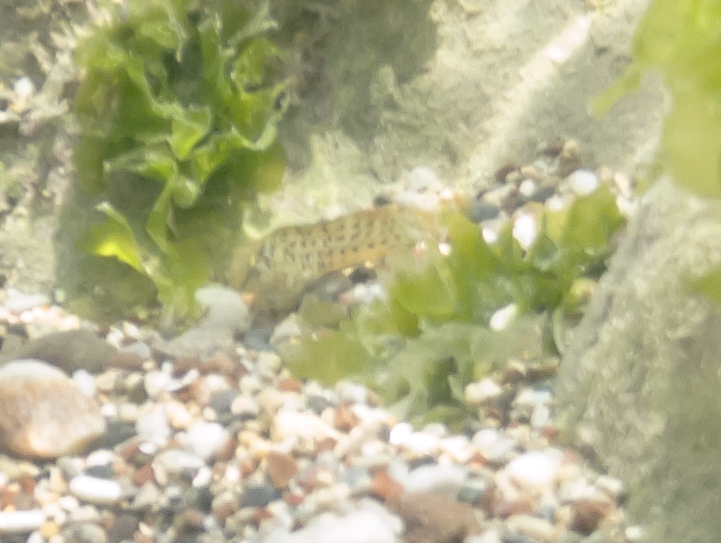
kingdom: Animalia
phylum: Chordata
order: Perciformes
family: Blenniidae
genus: Parablennius
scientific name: Parablennius sanguinolentus
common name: Black sea blenny
